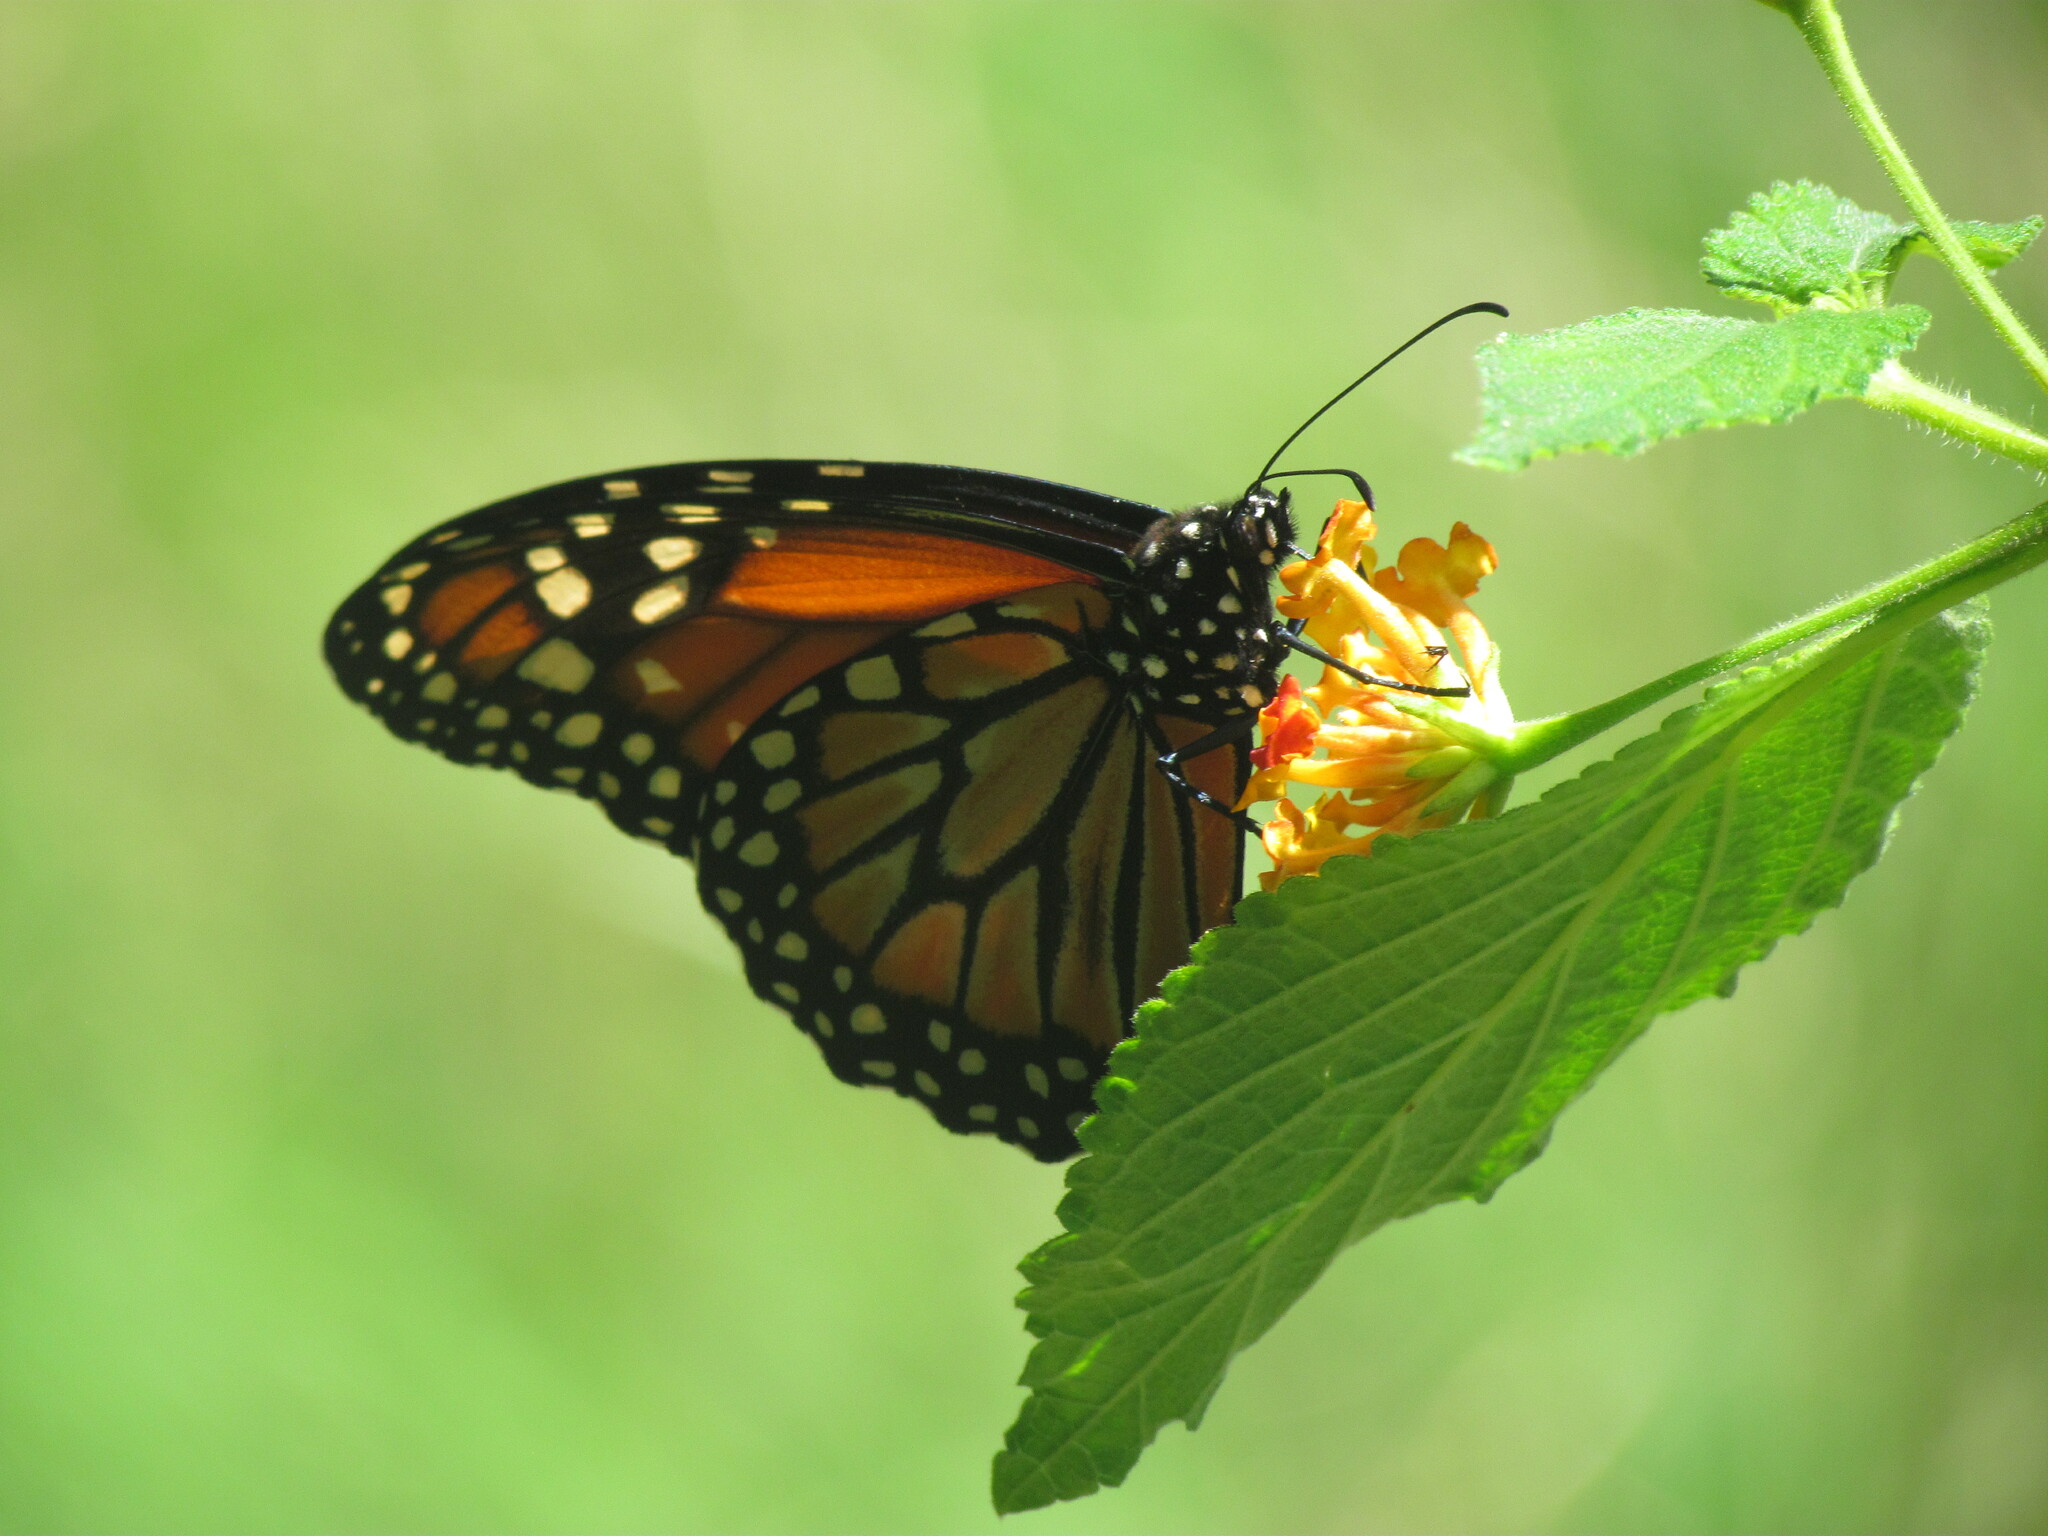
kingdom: Animalia
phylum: Arthropoda
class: Insecta
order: Lepidoptera
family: Nymphalidae
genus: Danaus
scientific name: Danaus erippus
